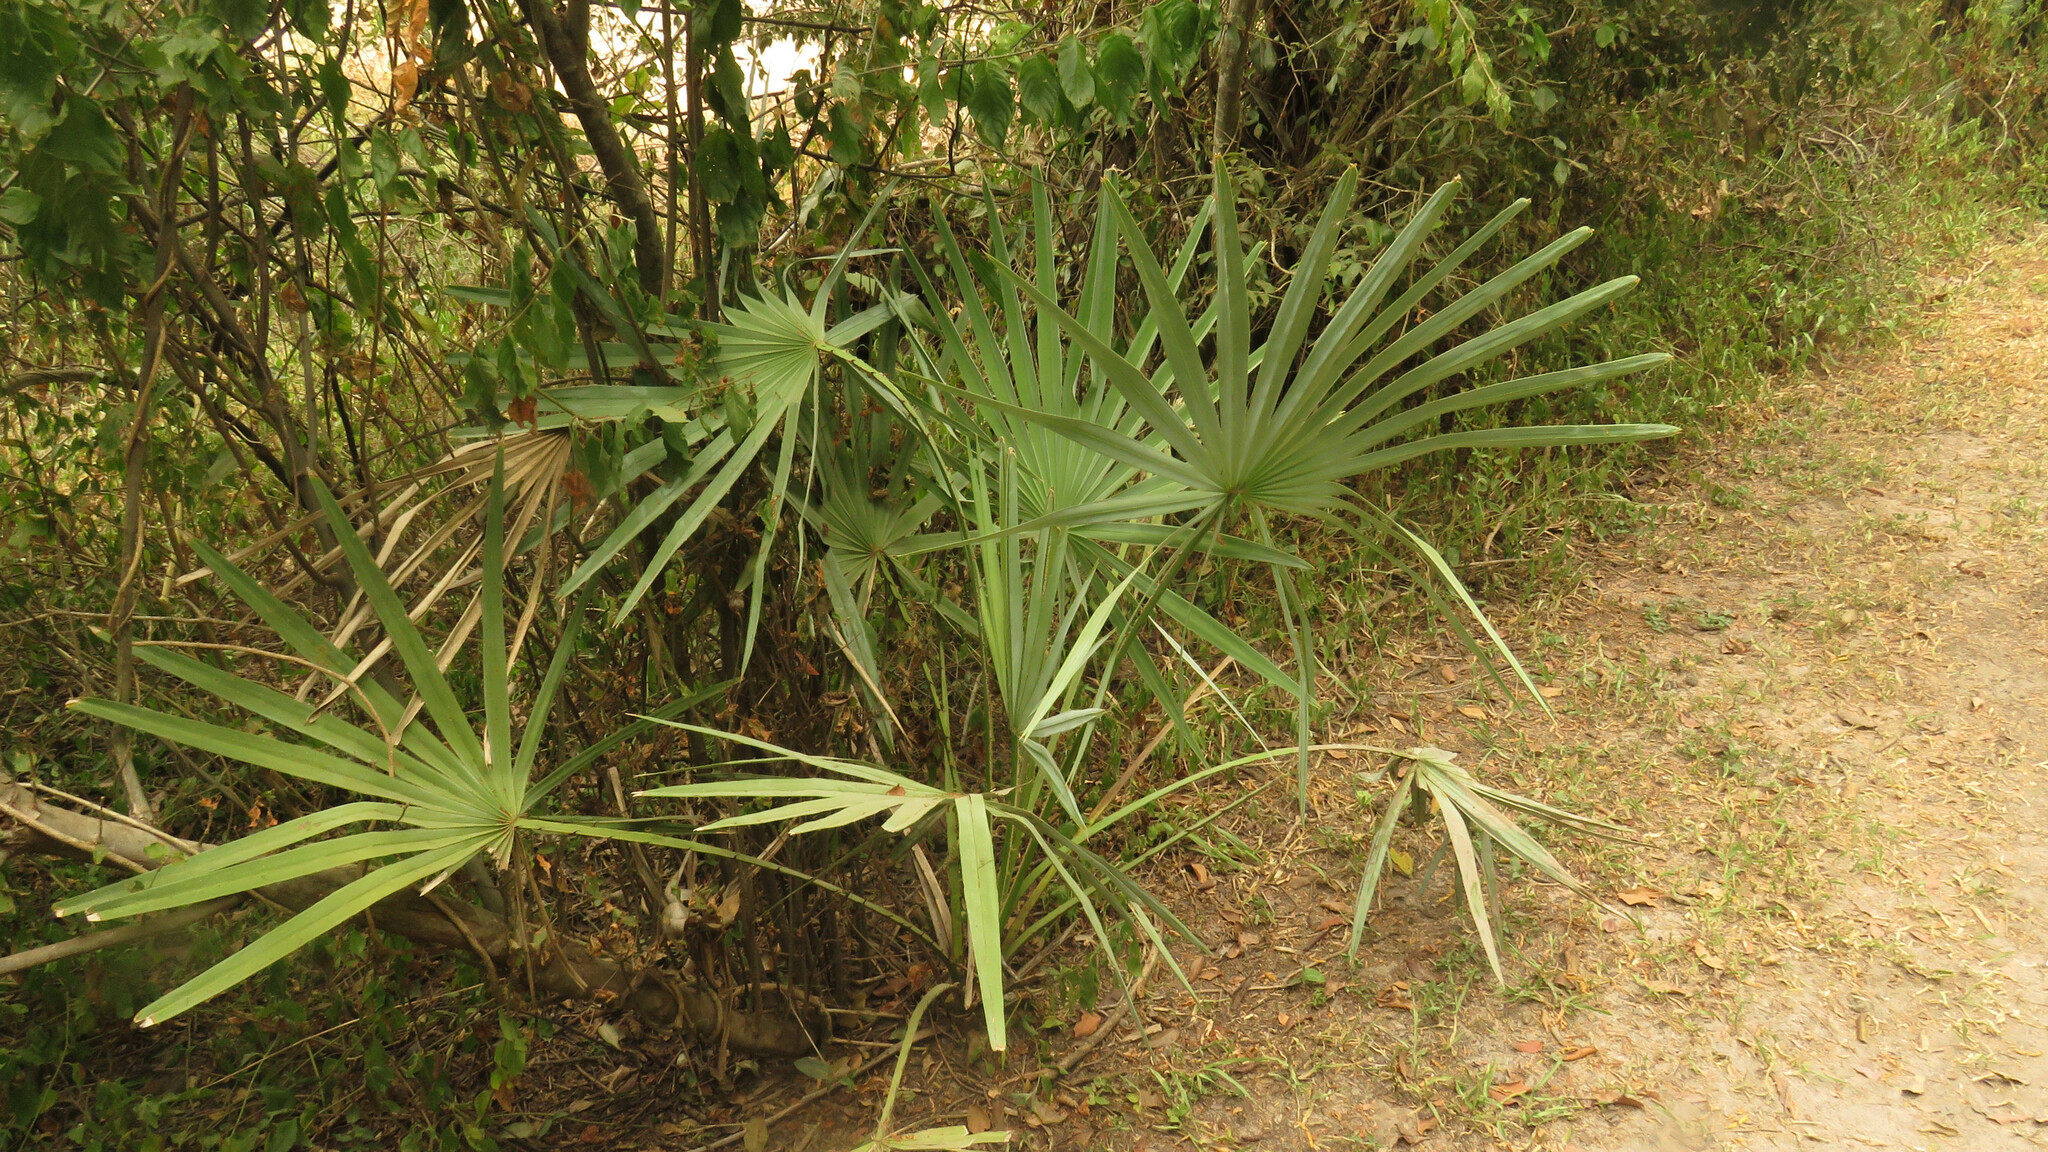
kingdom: Plantae
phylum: Tracheophyta
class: Liliopsida
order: Arecales
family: Arecaceae
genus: Copernicia
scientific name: Copernicia alba
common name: Caranday palm
